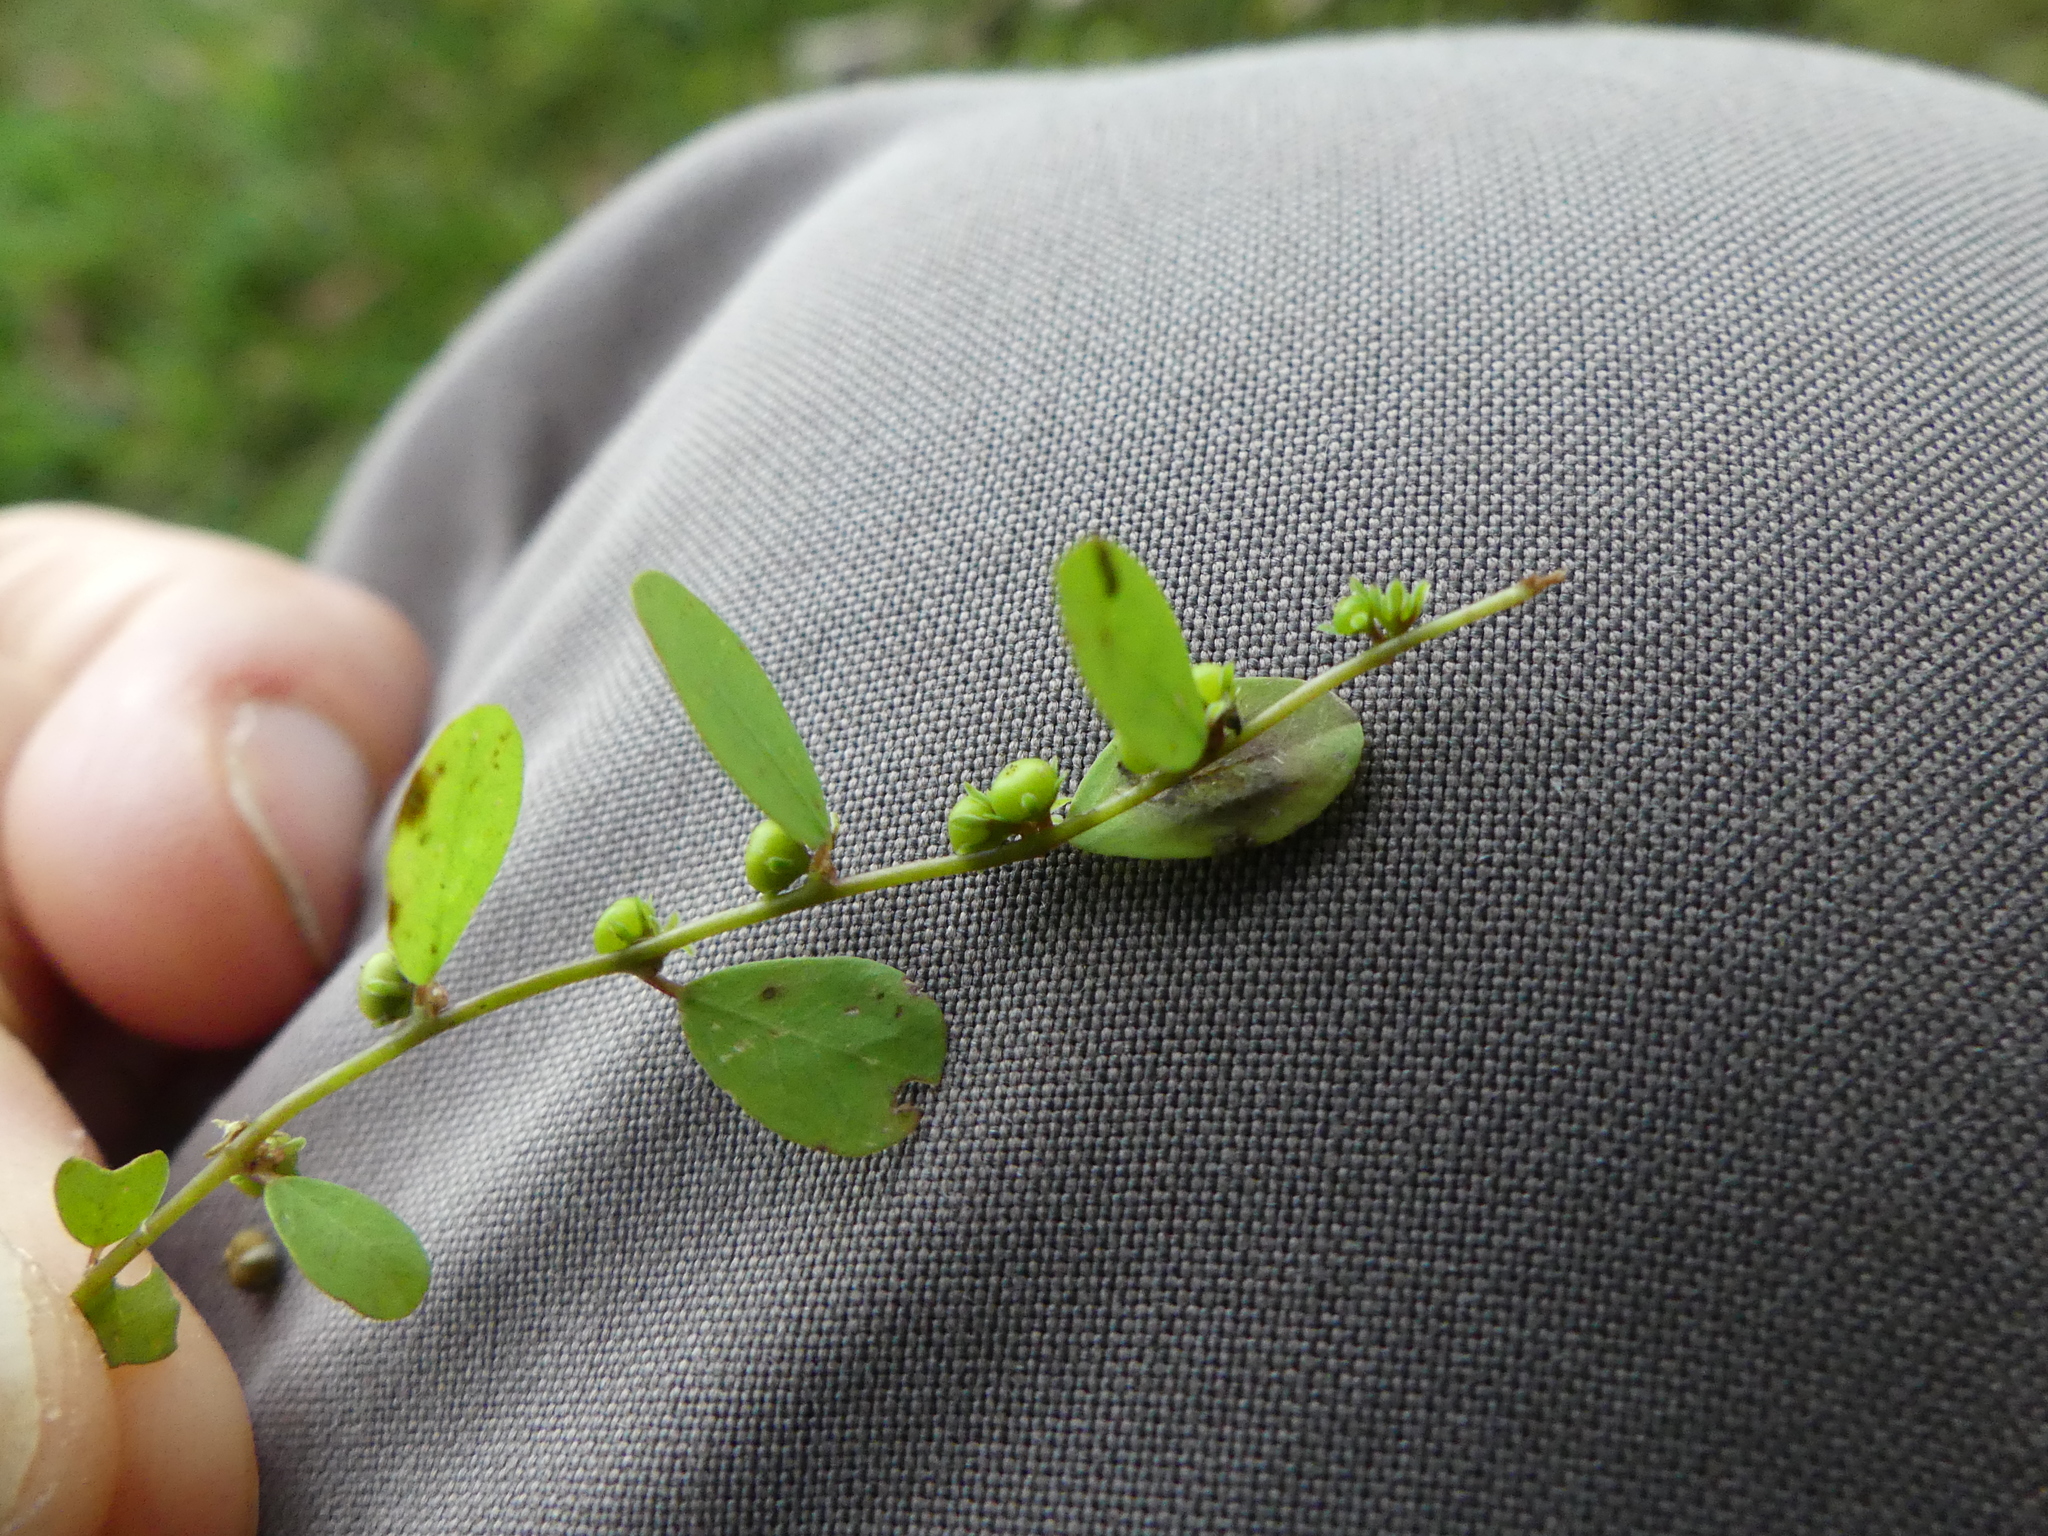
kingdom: Plantae
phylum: Tracheophyta
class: Magnoliopsida
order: Malpighiales
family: Phyllanthaceae
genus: Phyllanthus
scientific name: Phyllanthus caroliniensis
